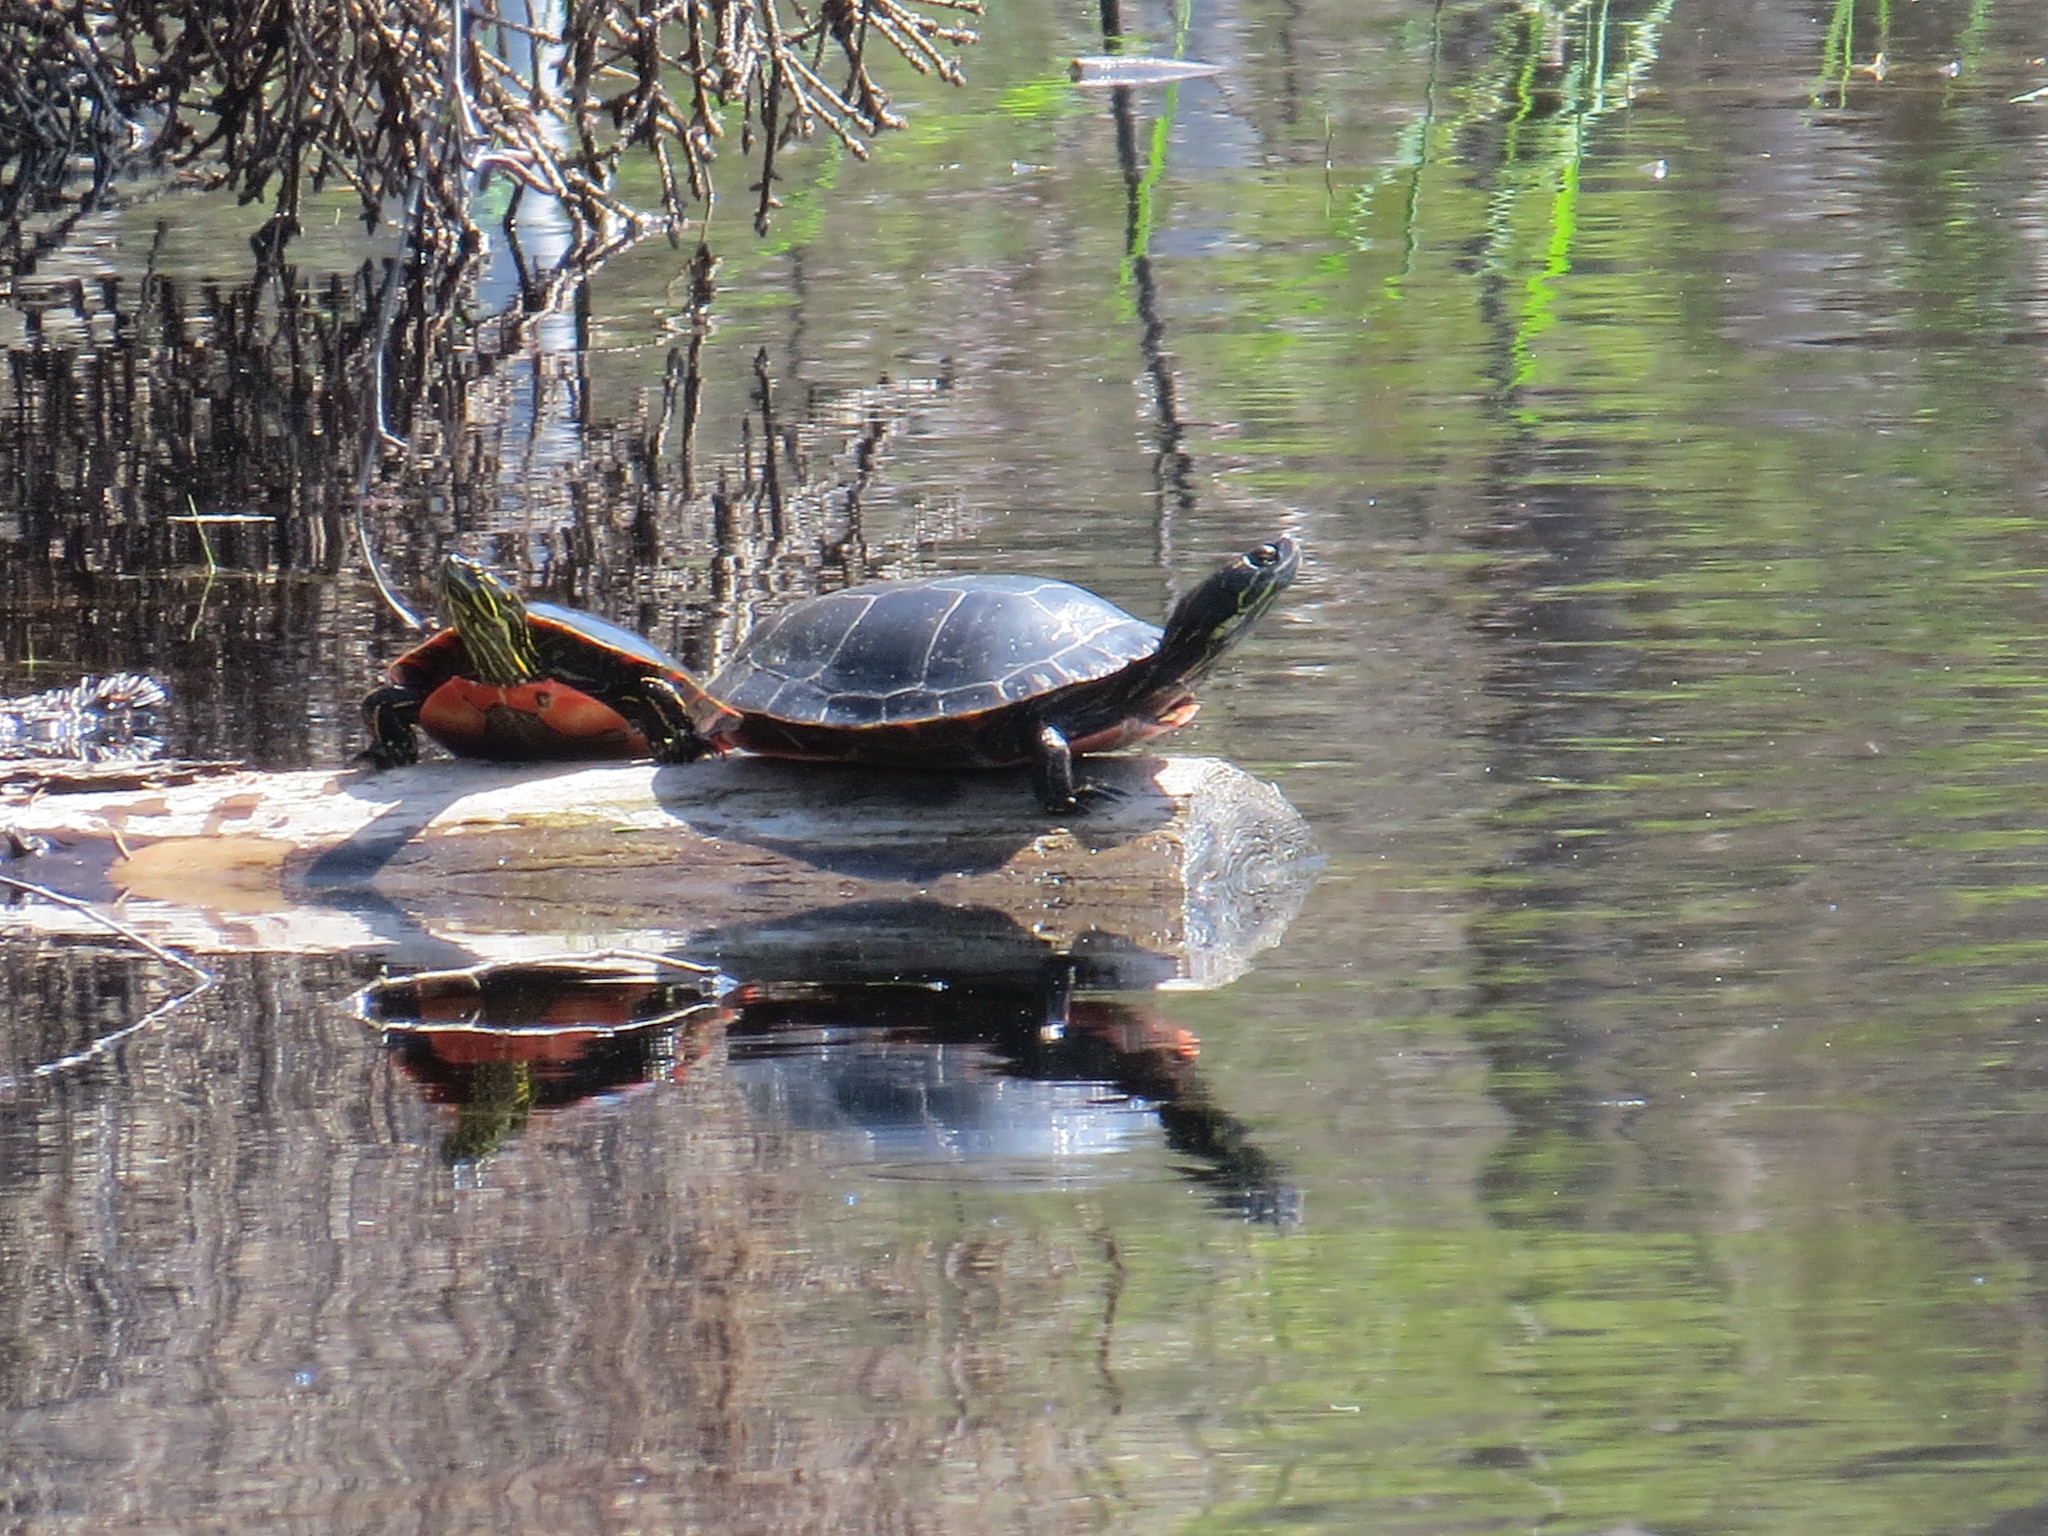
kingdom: Animalia
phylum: Chordata
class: Testudines
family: Emydidae
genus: Chrysemys
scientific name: Chrysemys picta
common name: Painted turtle
